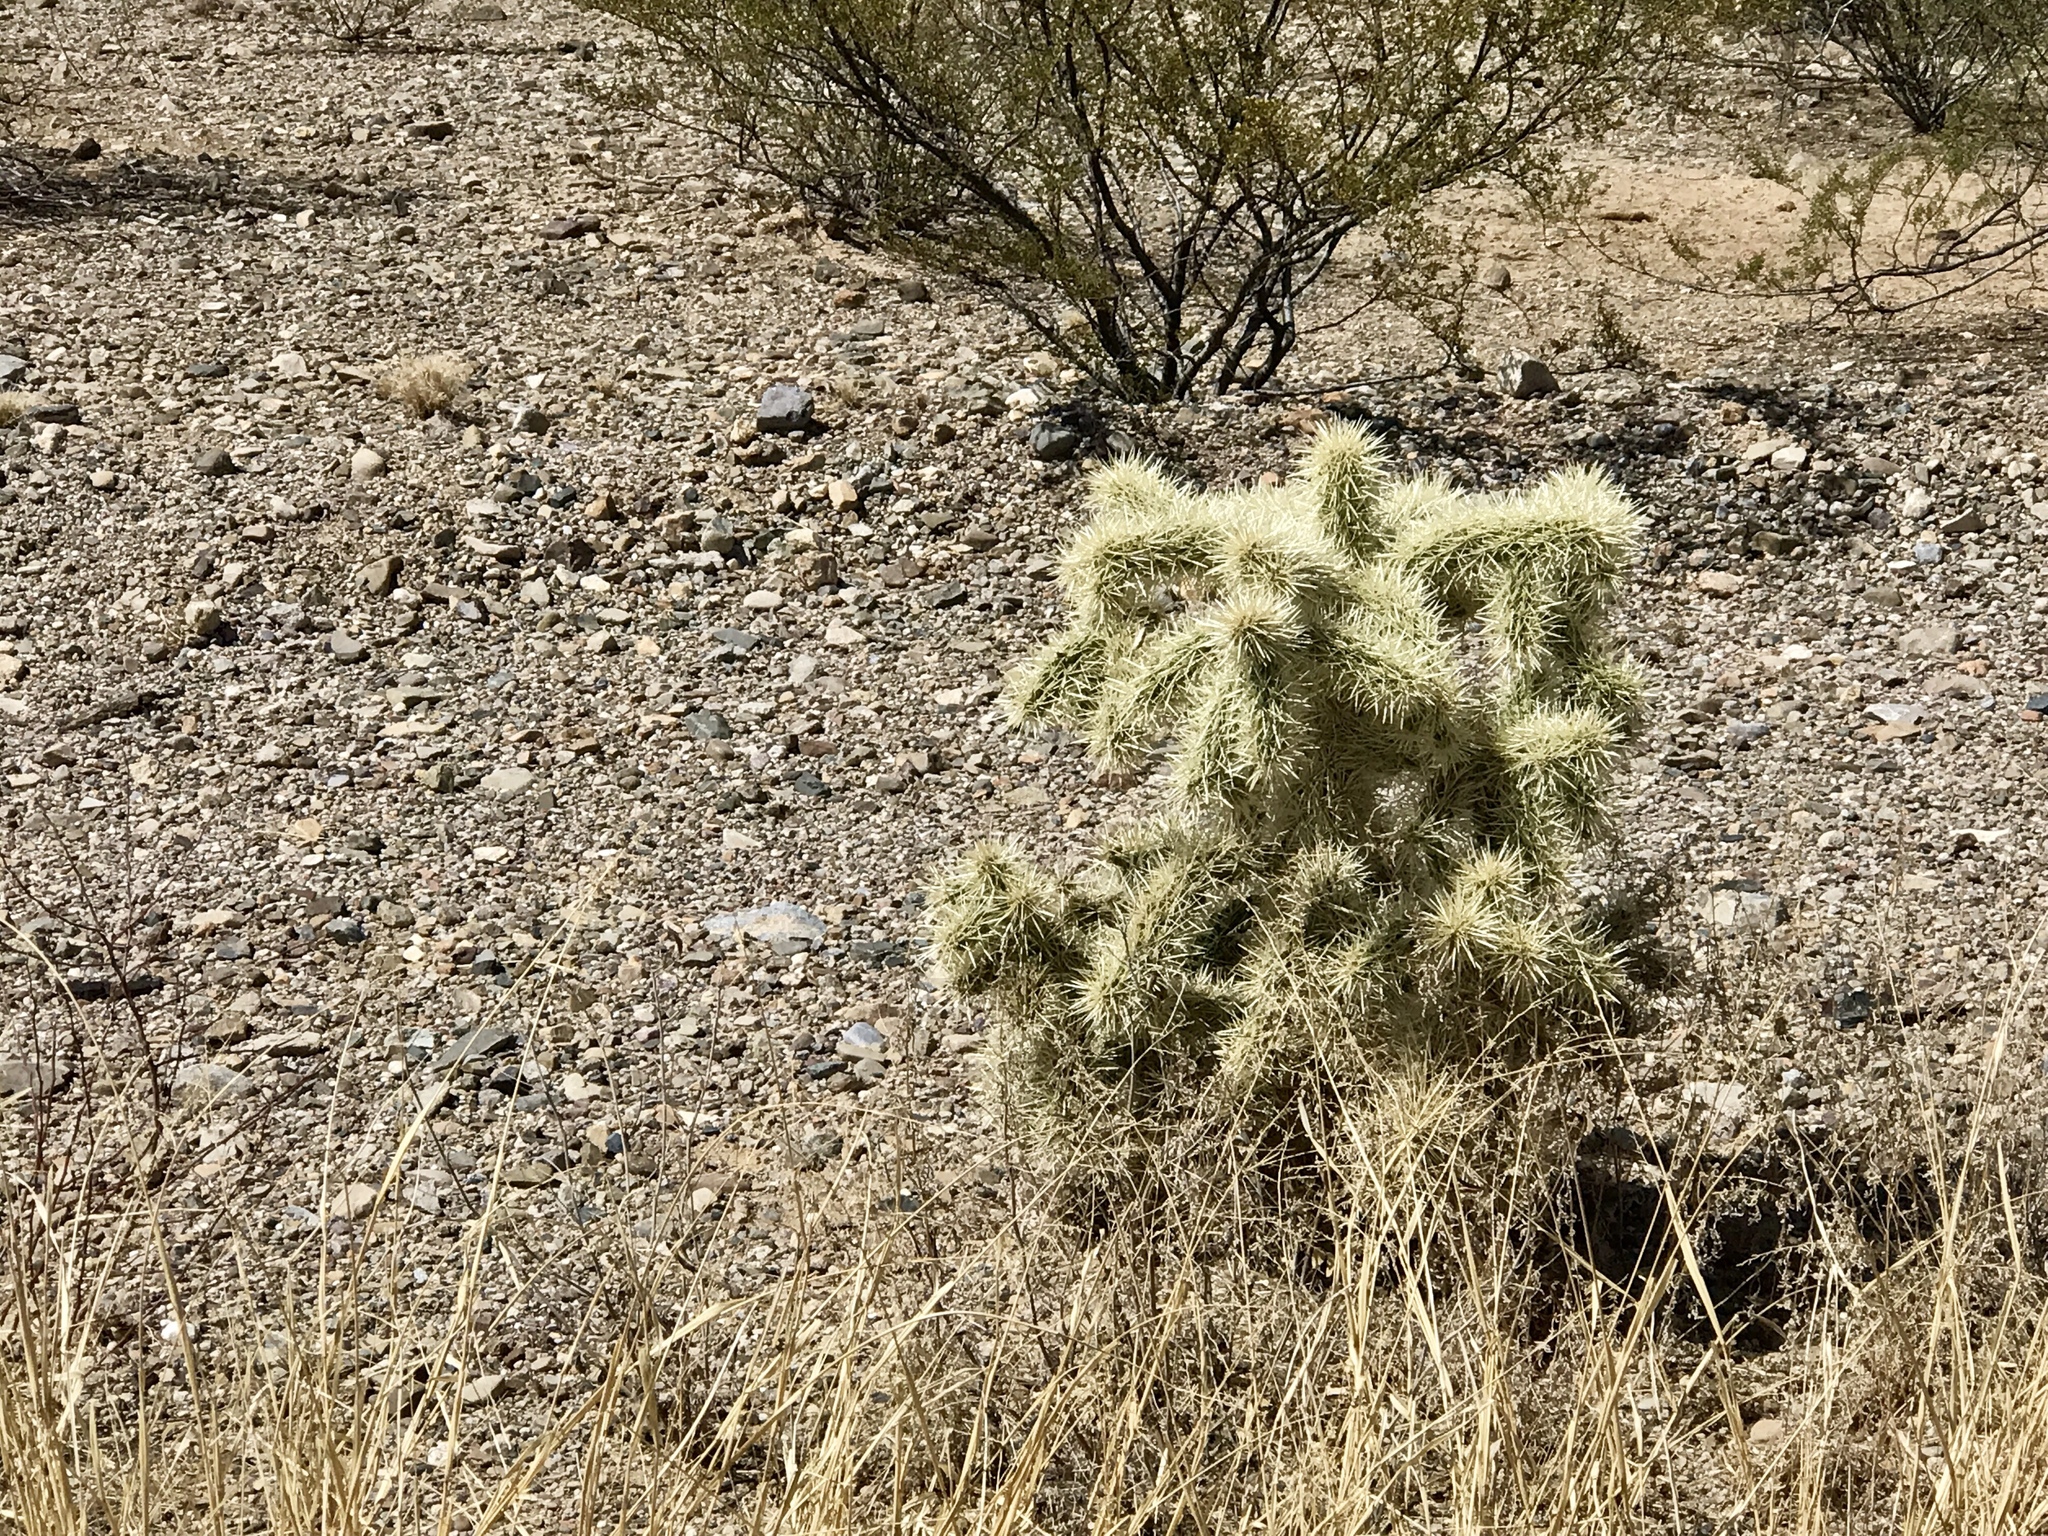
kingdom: Plantae
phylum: Tracheophyta
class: Magnoliopsida
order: Caryophyllales
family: Cactaceae
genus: Cylindropuntia
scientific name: Cylindropuntia fulgida
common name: Jumping cholla
